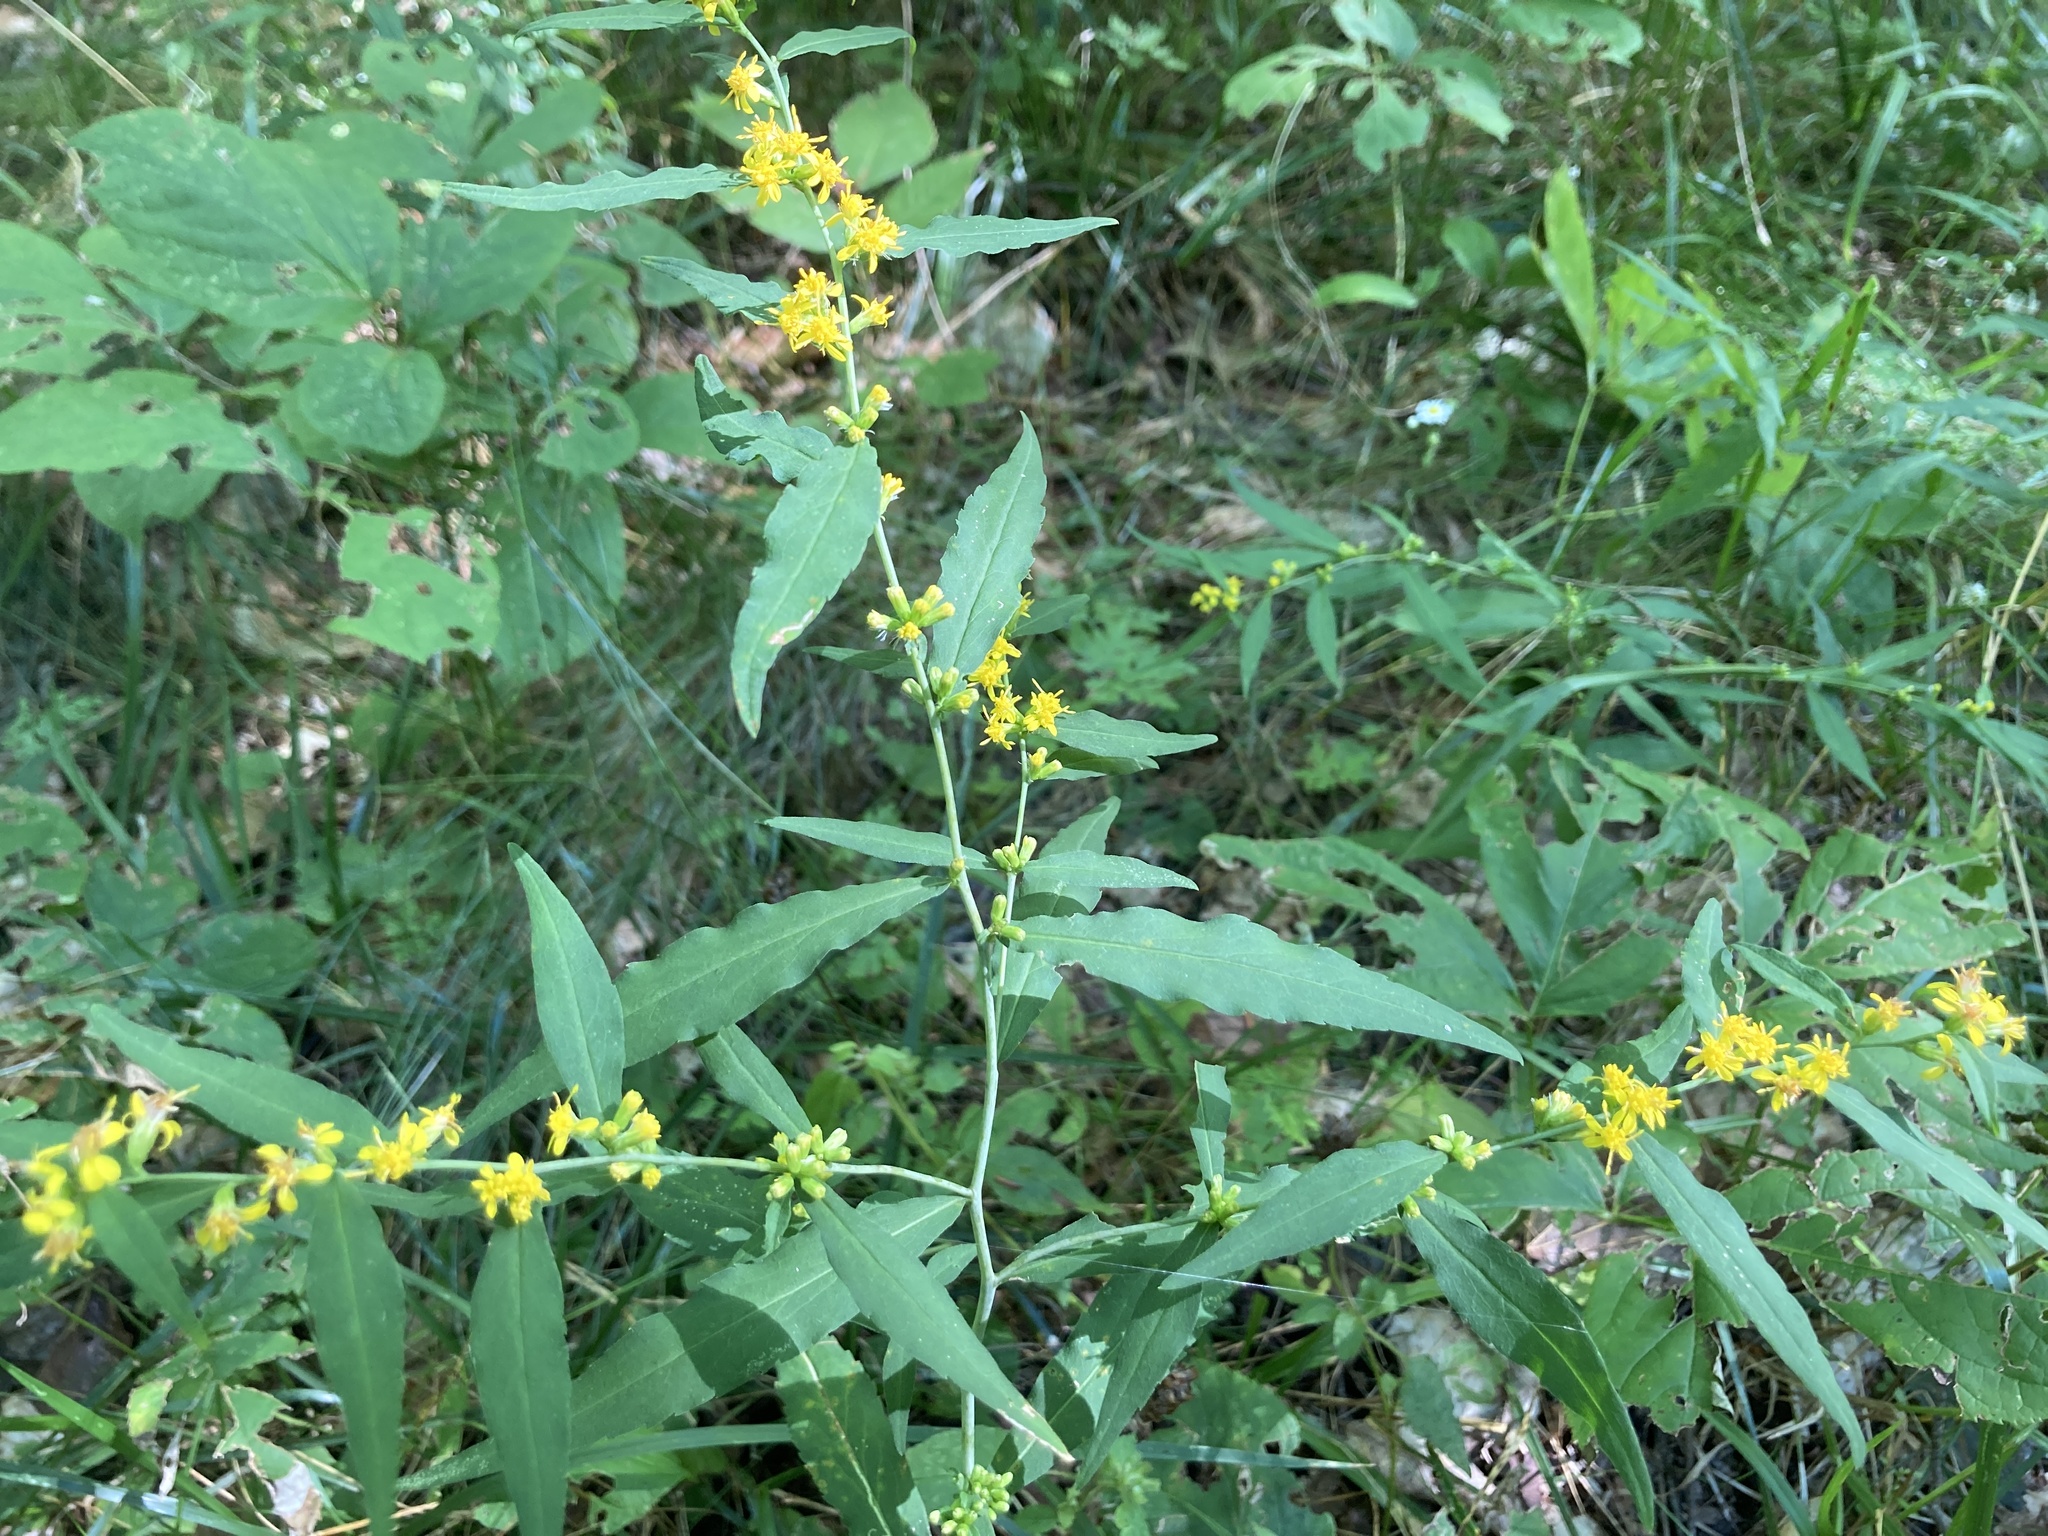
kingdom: Plantae
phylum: Tracheophyta
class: Magnoliopsida
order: Asterales
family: Asteraceae
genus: Solidago
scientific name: Solidago caesia
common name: Woodland goldenrod
